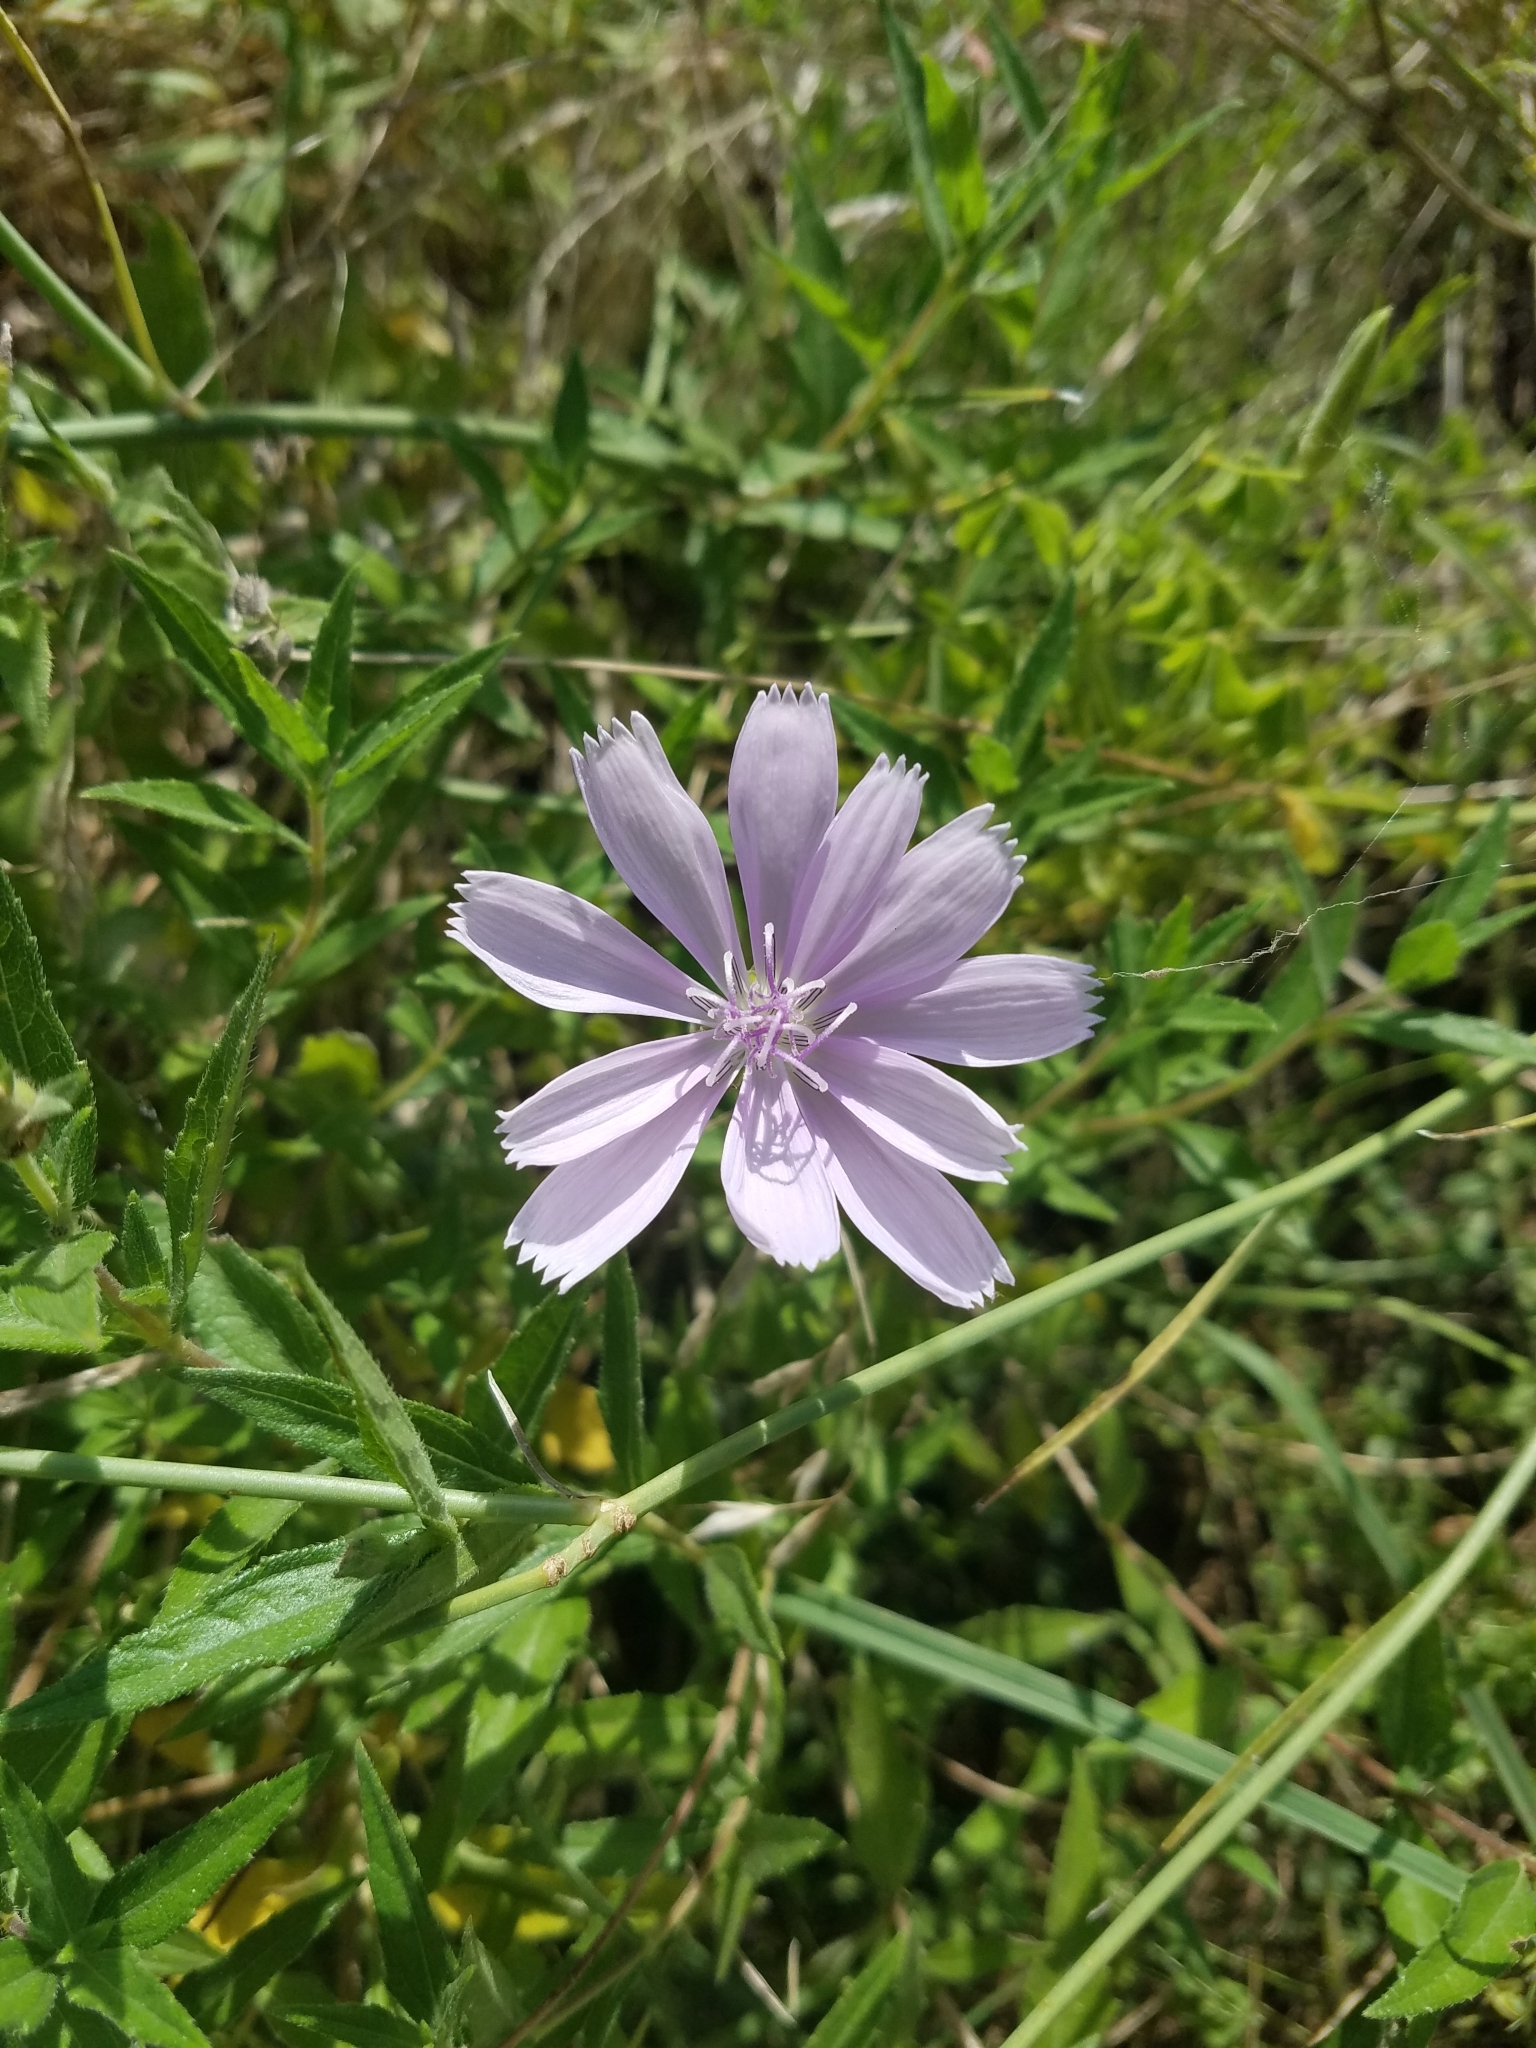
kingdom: Plantae
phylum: Tracheophyta
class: Magnoliopsida
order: Asterales
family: Asteraceae
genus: Lygodesmia
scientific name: Lygodesmia texana
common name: Texas skeleton-plant
